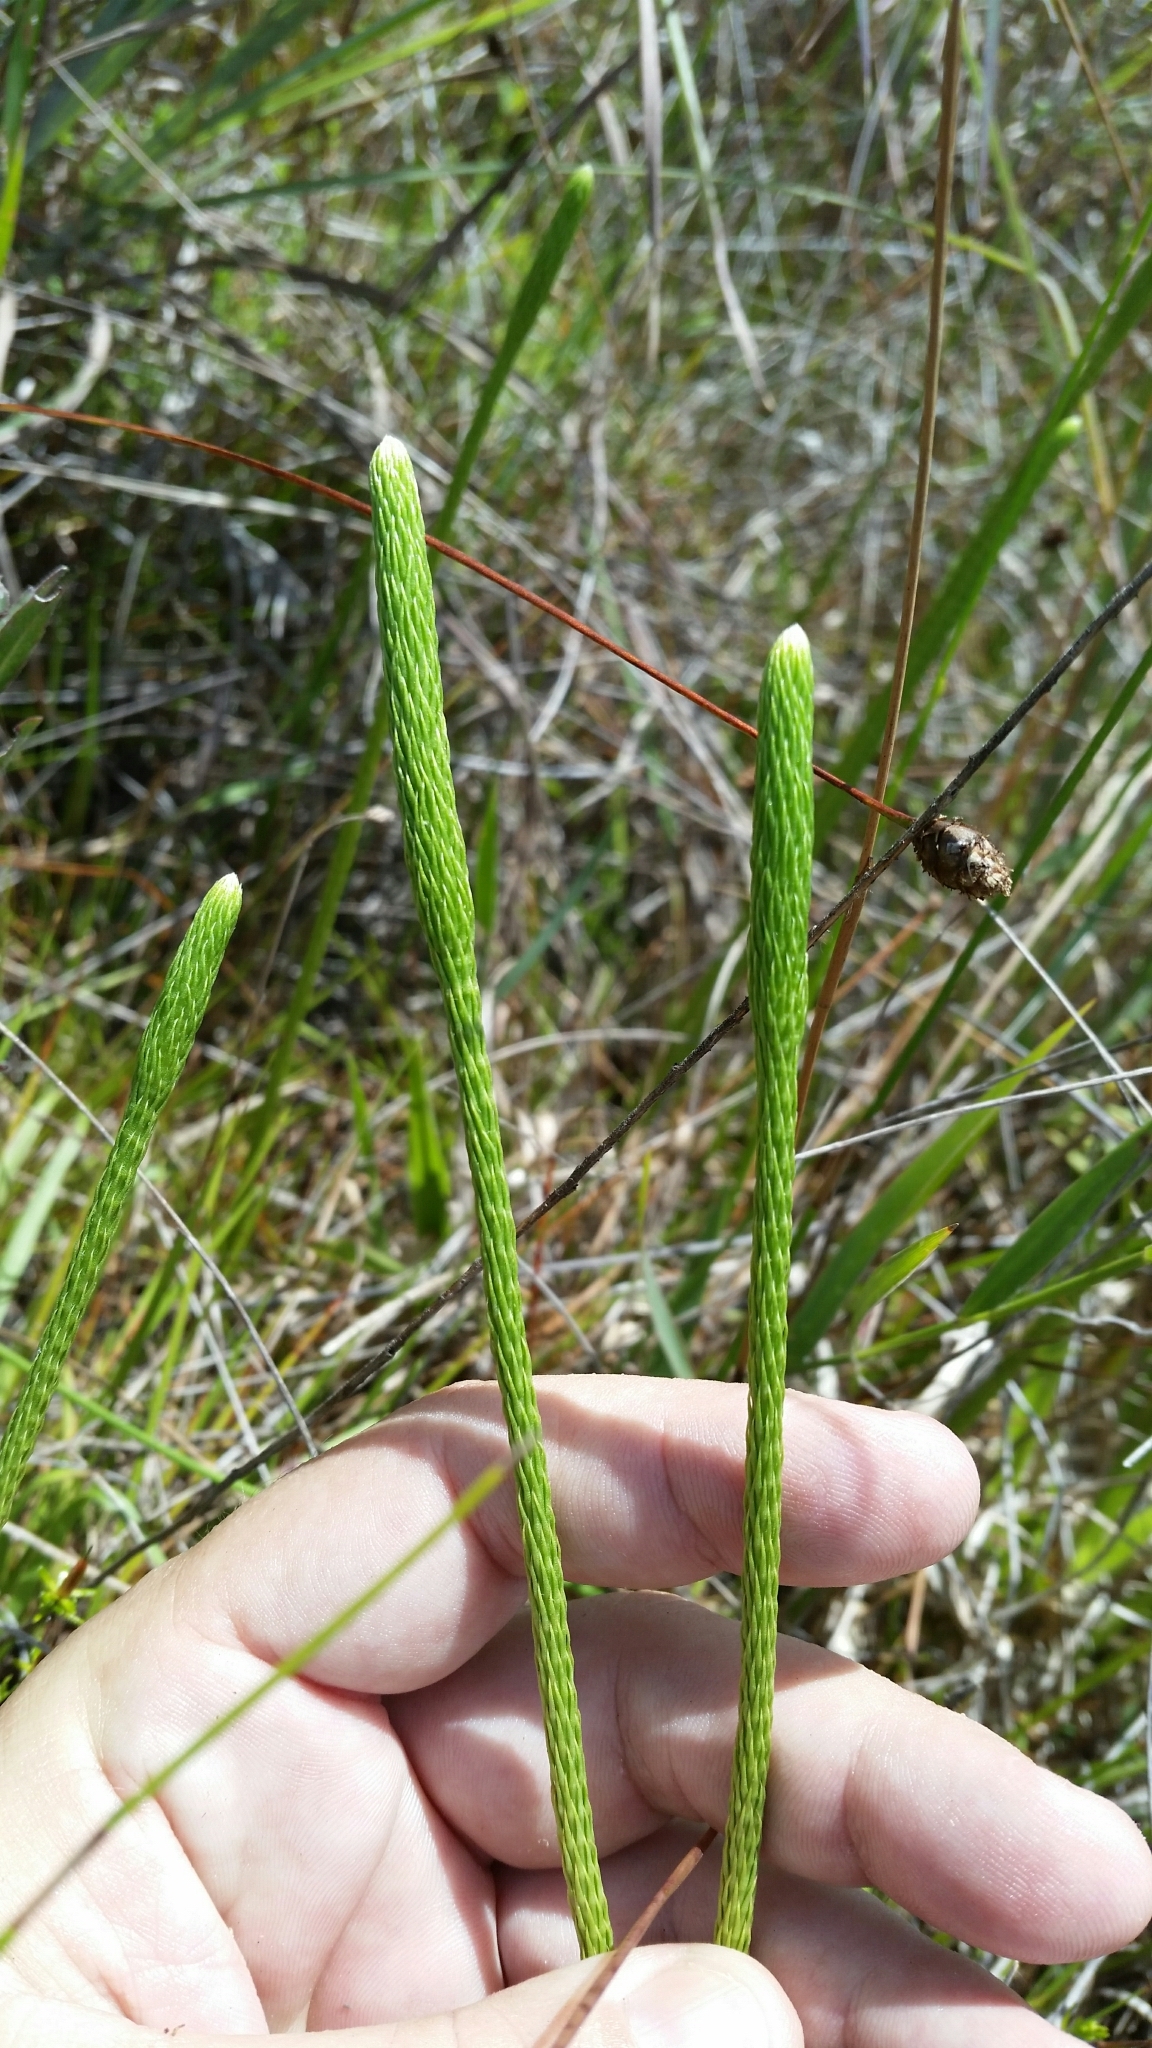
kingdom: Plantae
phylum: Tracheophyta
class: Lycopodiopsida
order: Lycopodiales
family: Lycopodiaceae
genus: Lycopodiella
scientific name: Lycopodiella appressa
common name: Appressed bog clubmoss
